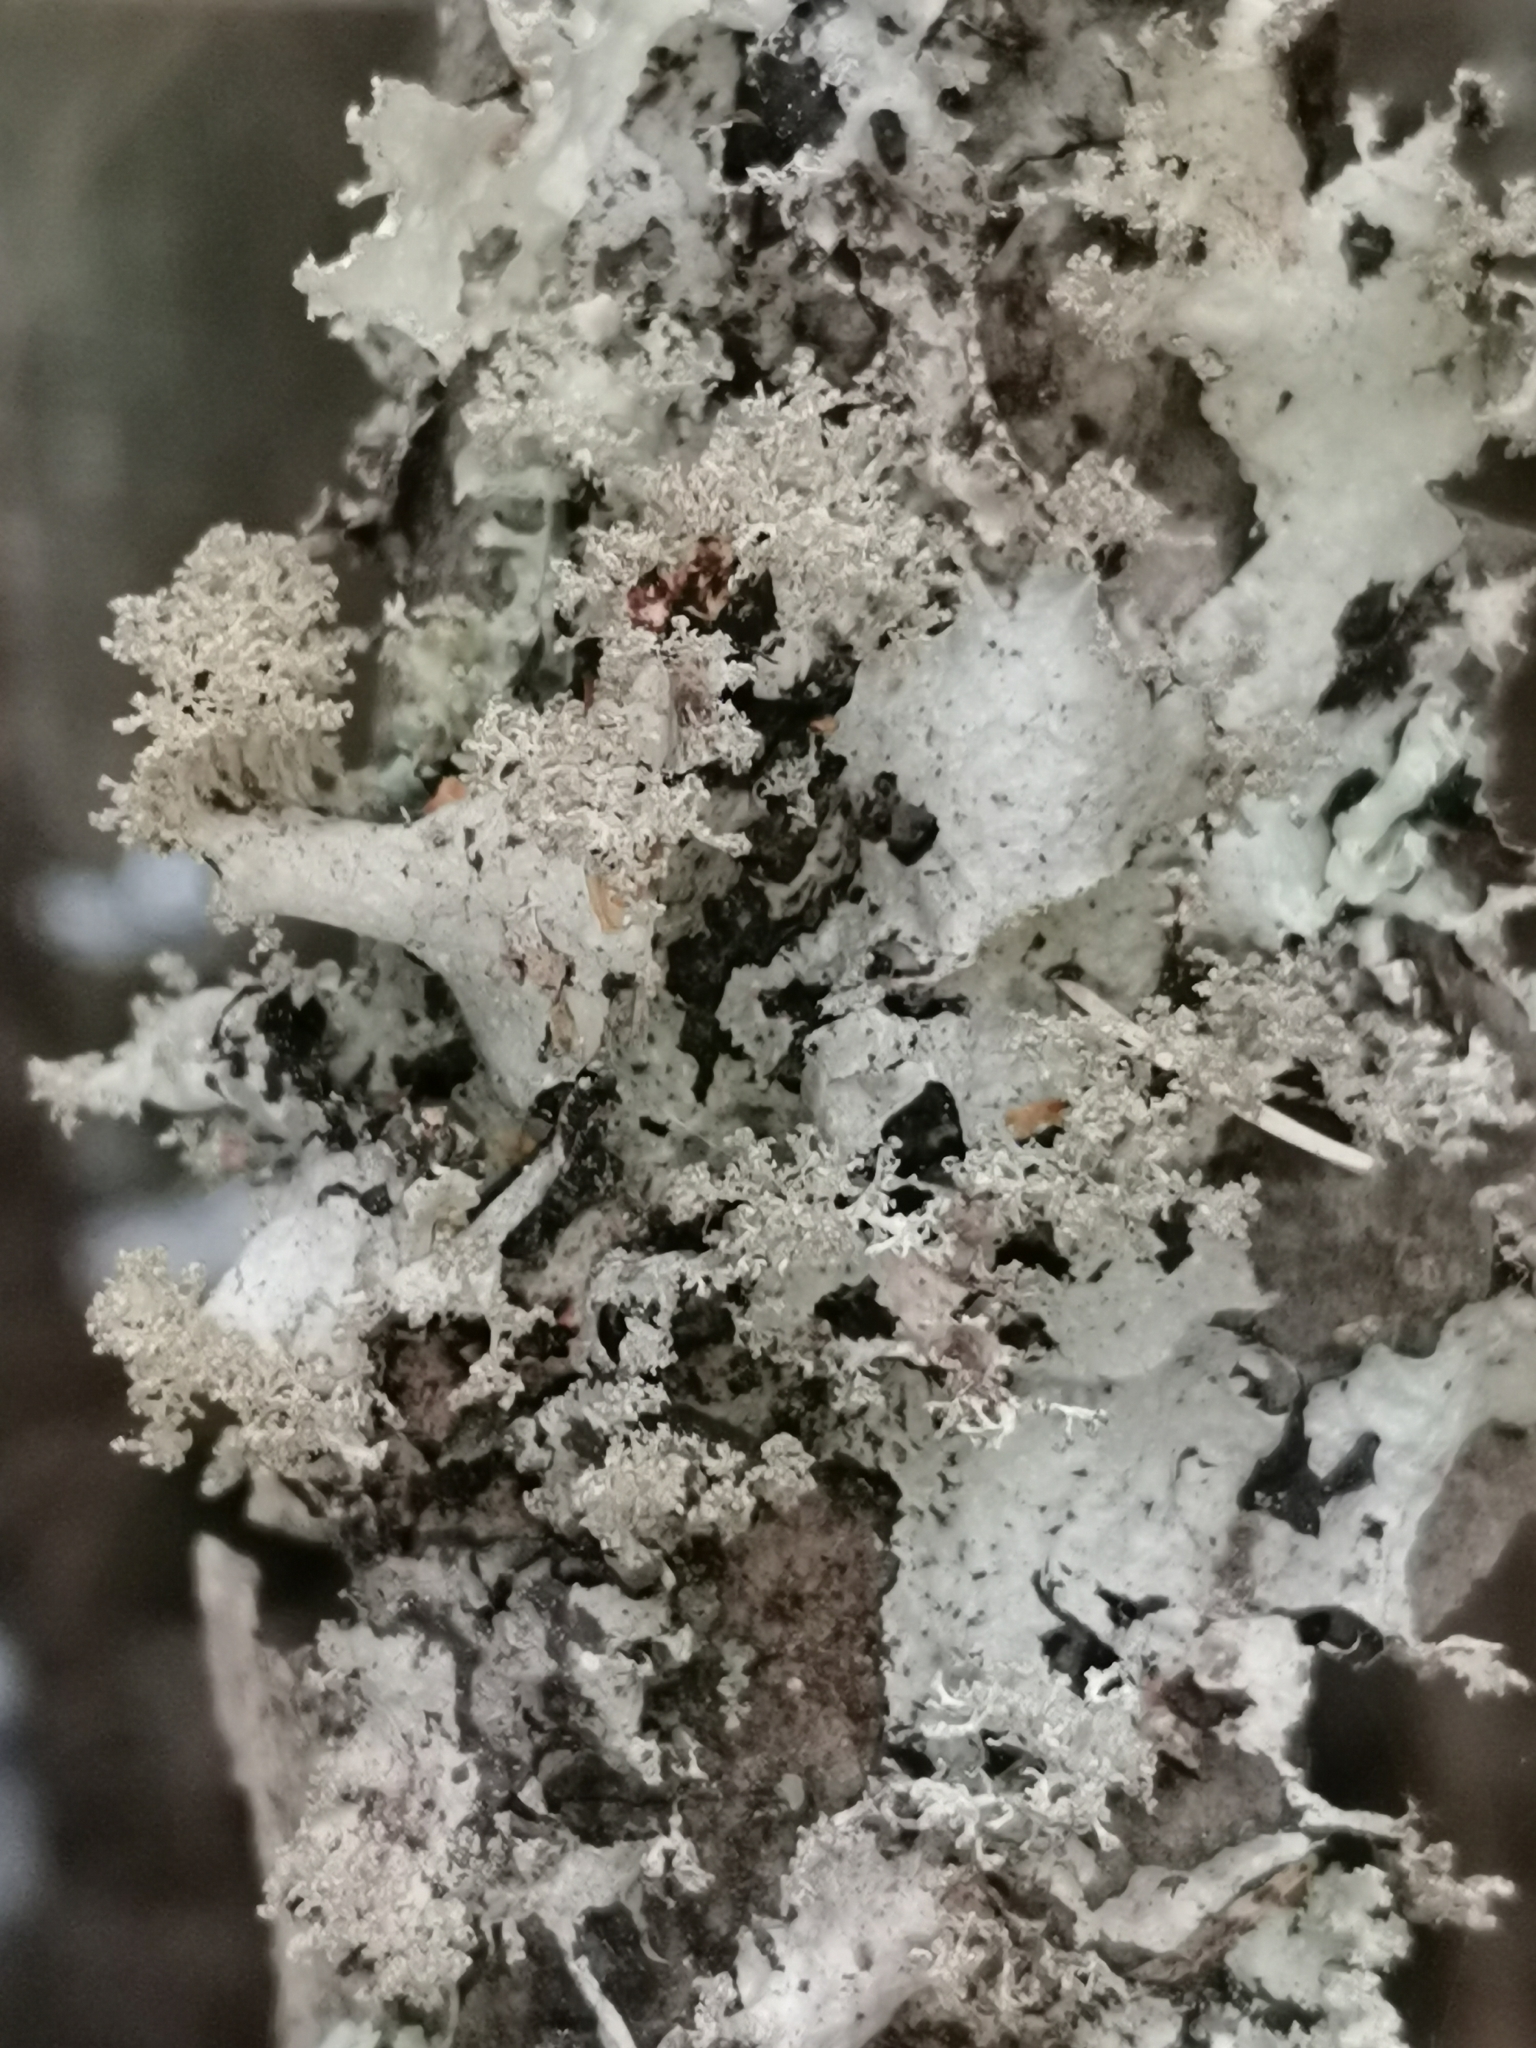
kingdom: Fungi
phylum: Ascomycota
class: Lecanoromycetes
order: Lecanorales
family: Parmeliaceae
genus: Platismatia
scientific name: Platismatia glauca
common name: Varied rag lichen
